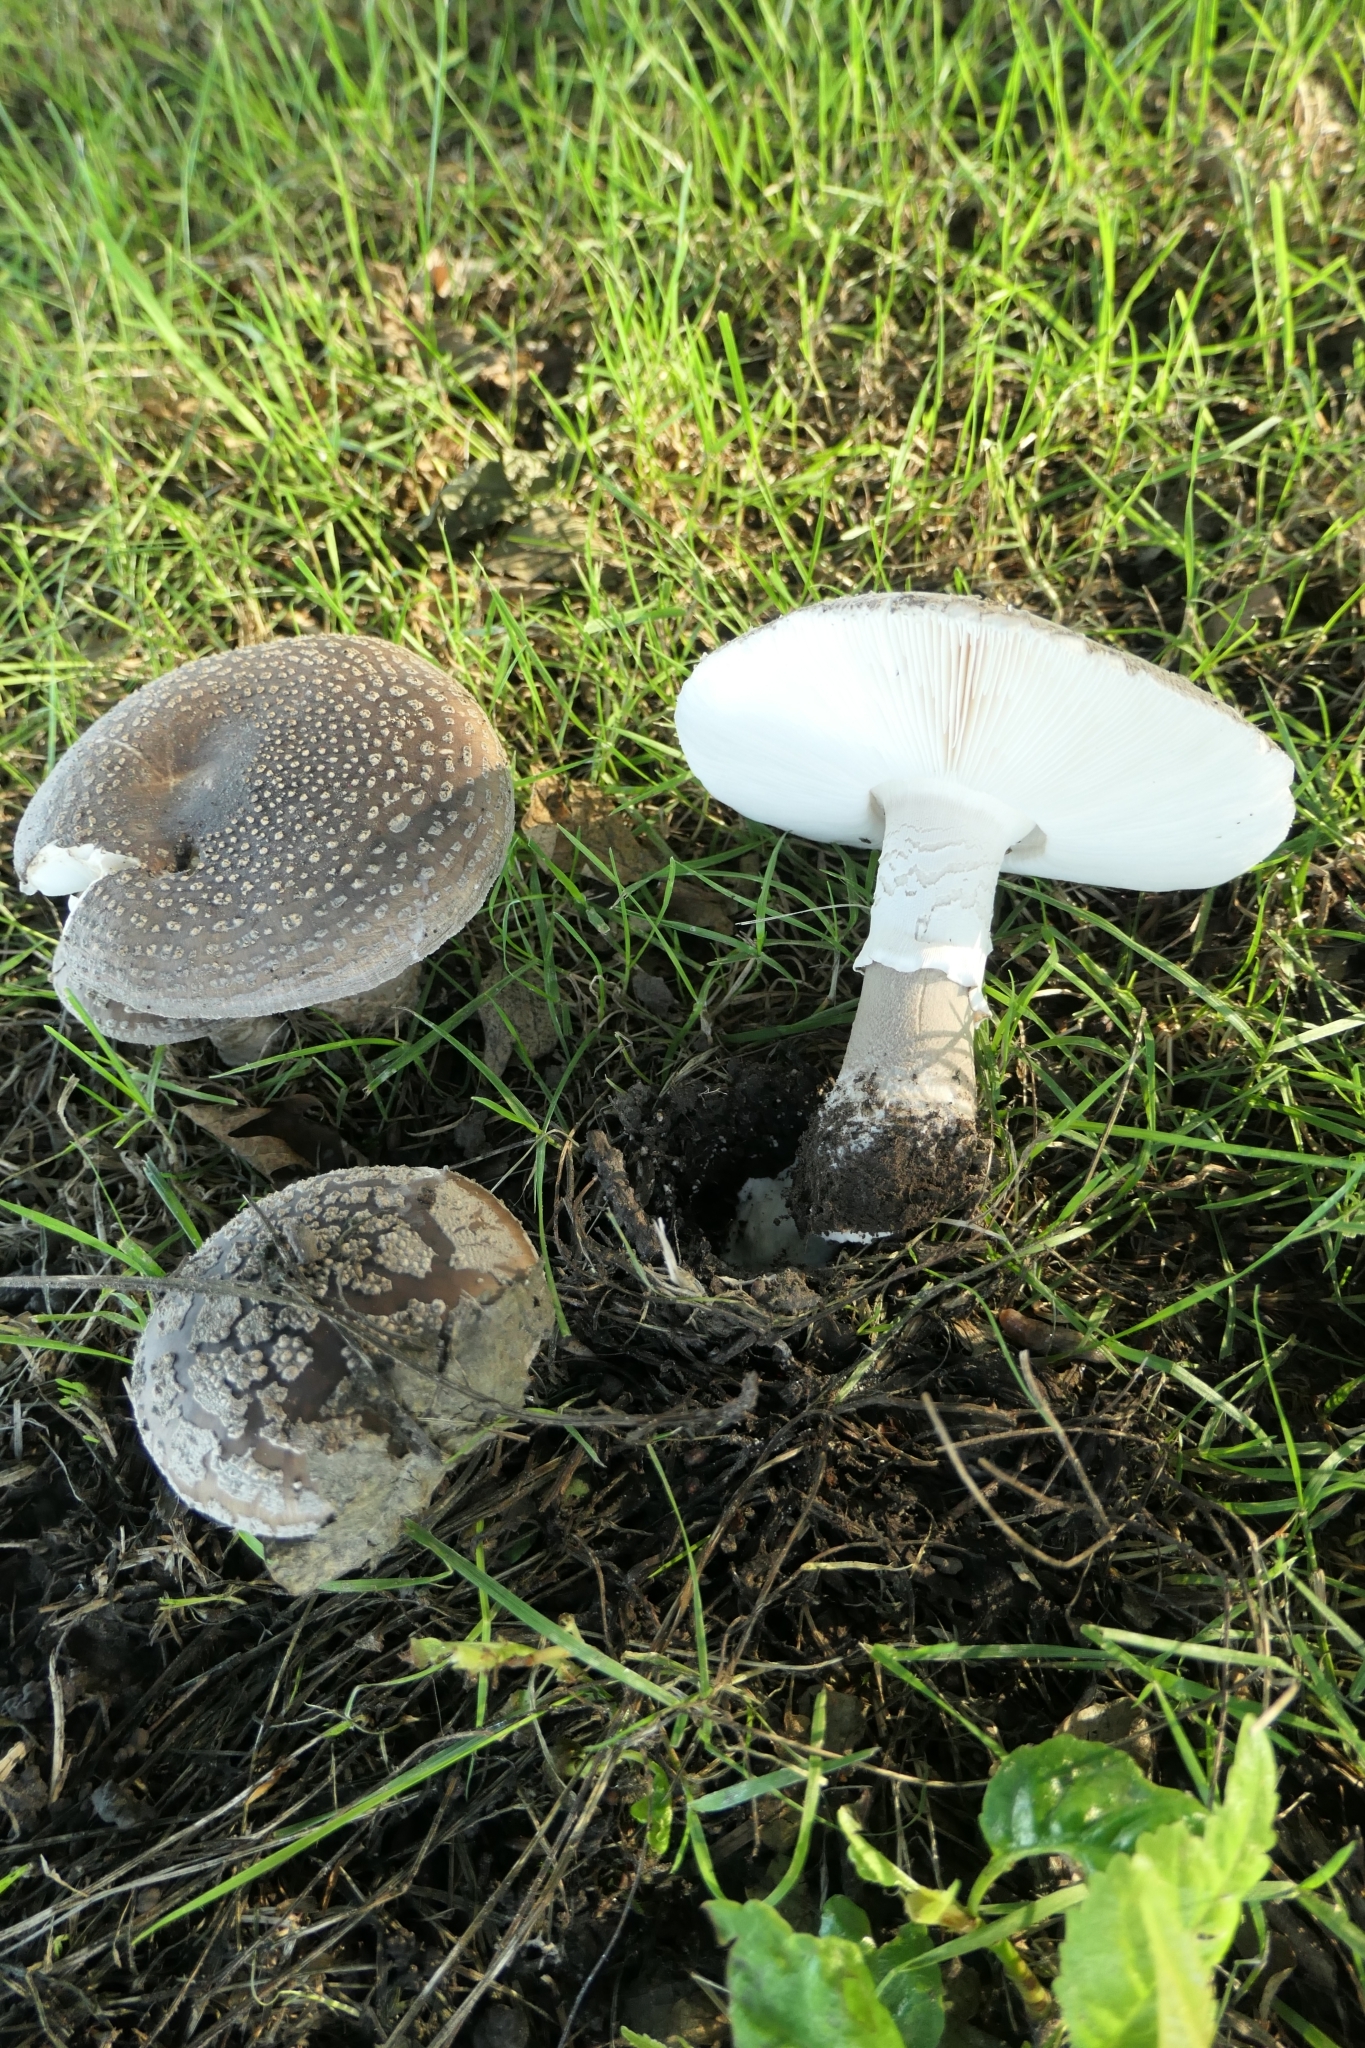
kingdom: Fungi
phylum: Basidiomycota
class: Agaricomycetes
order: Agaricales
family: Amanitaceae
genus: Amanita
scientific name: Amanita excelsa
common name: European false blusher
